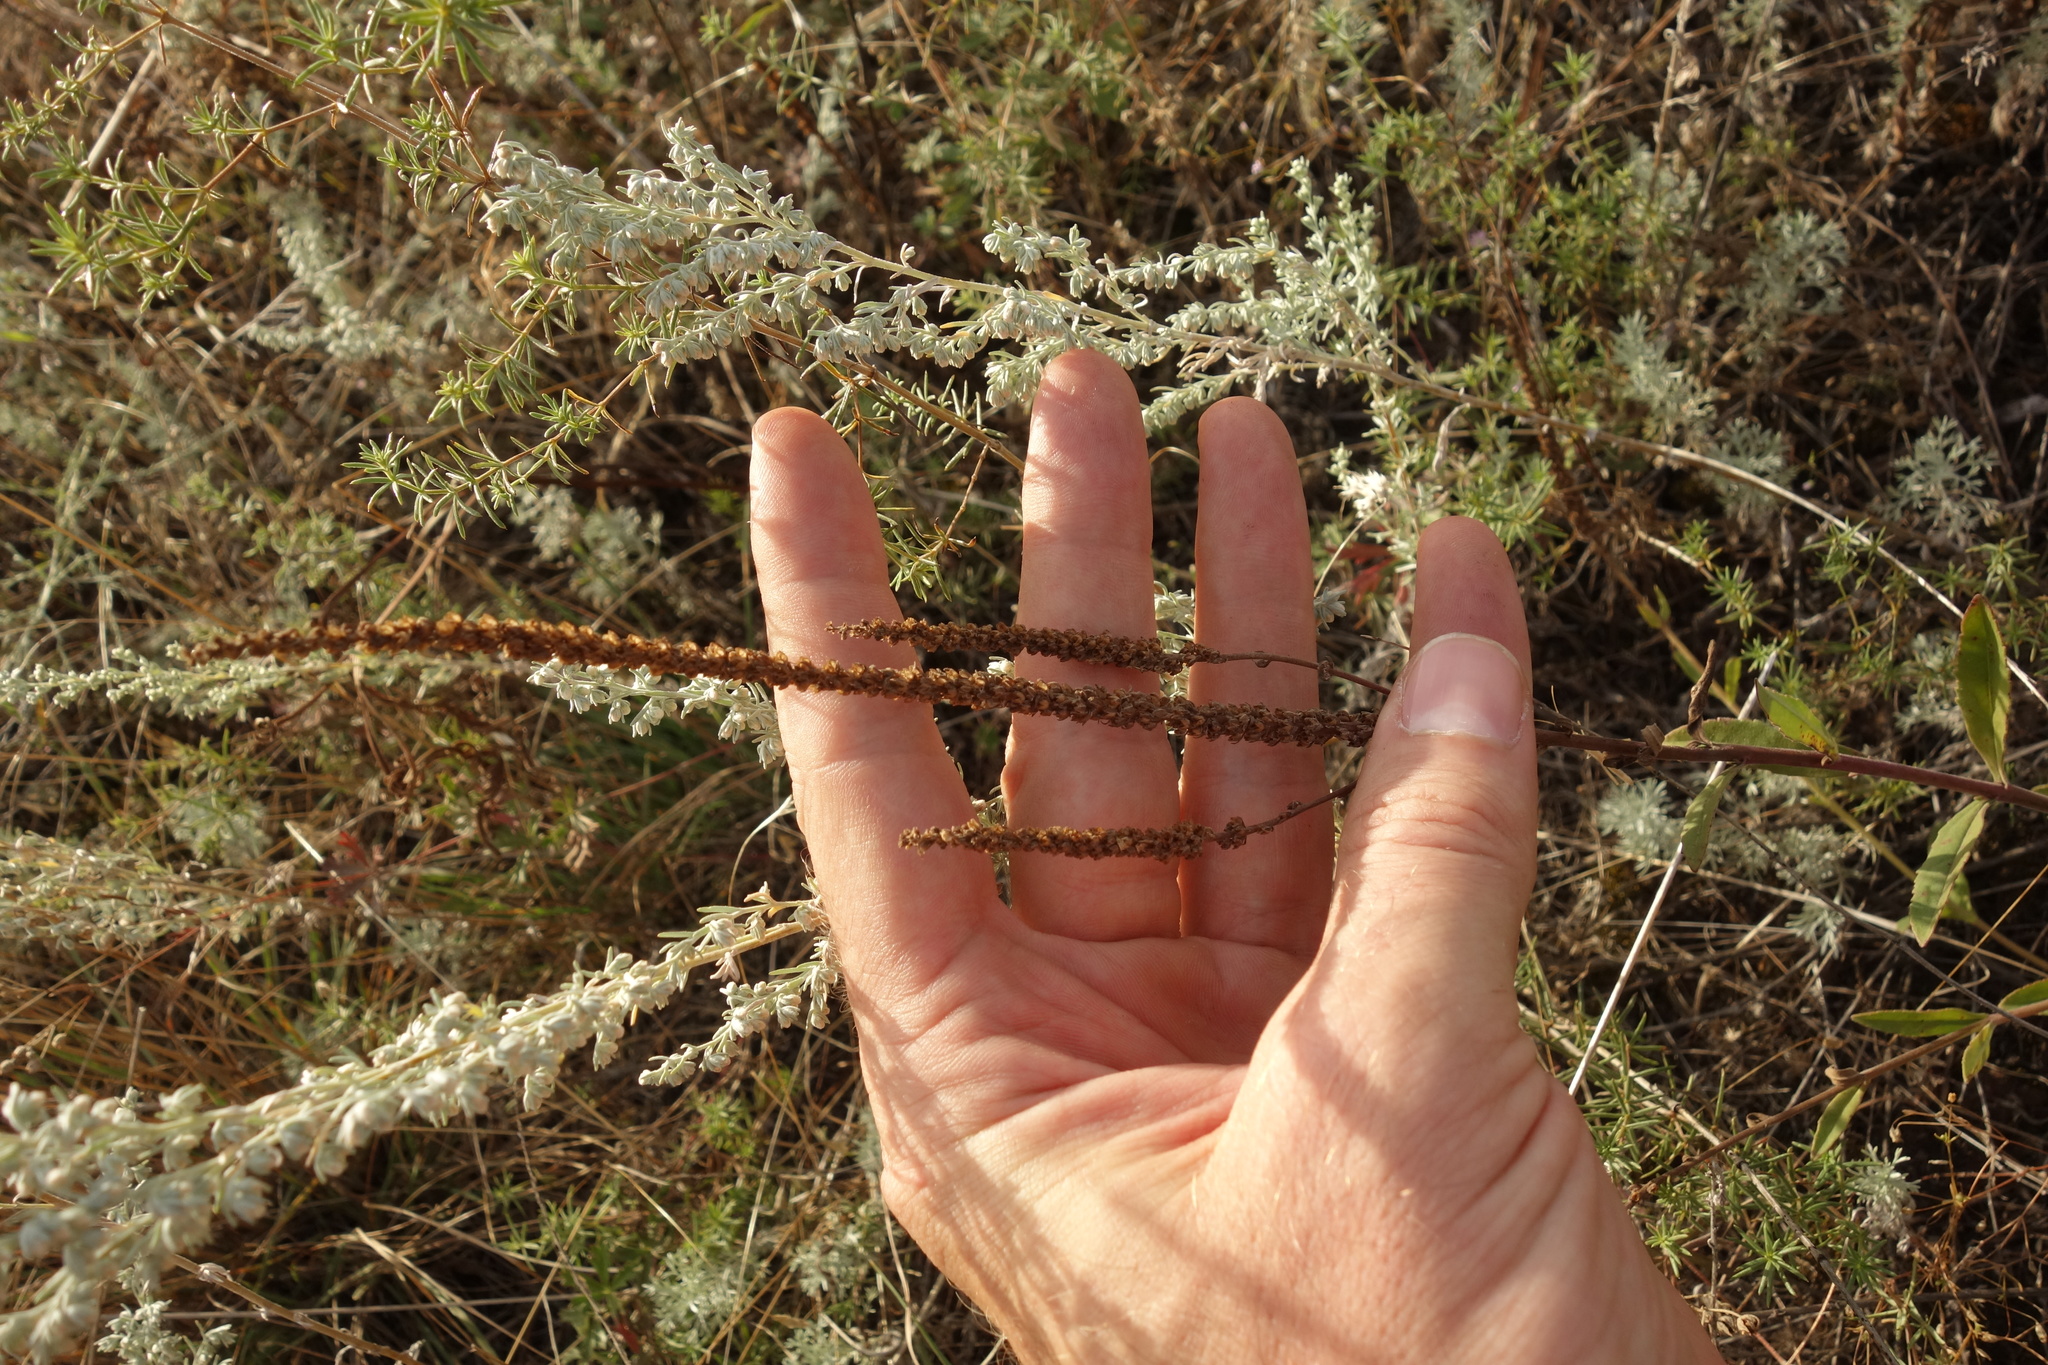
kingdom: Plantae
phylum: Tracheophyta
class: Magnoliopsida
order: Lamiales
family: Plantaginaceae
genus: Veronica
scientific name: Veronica spicata
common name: Spiked speedwell
